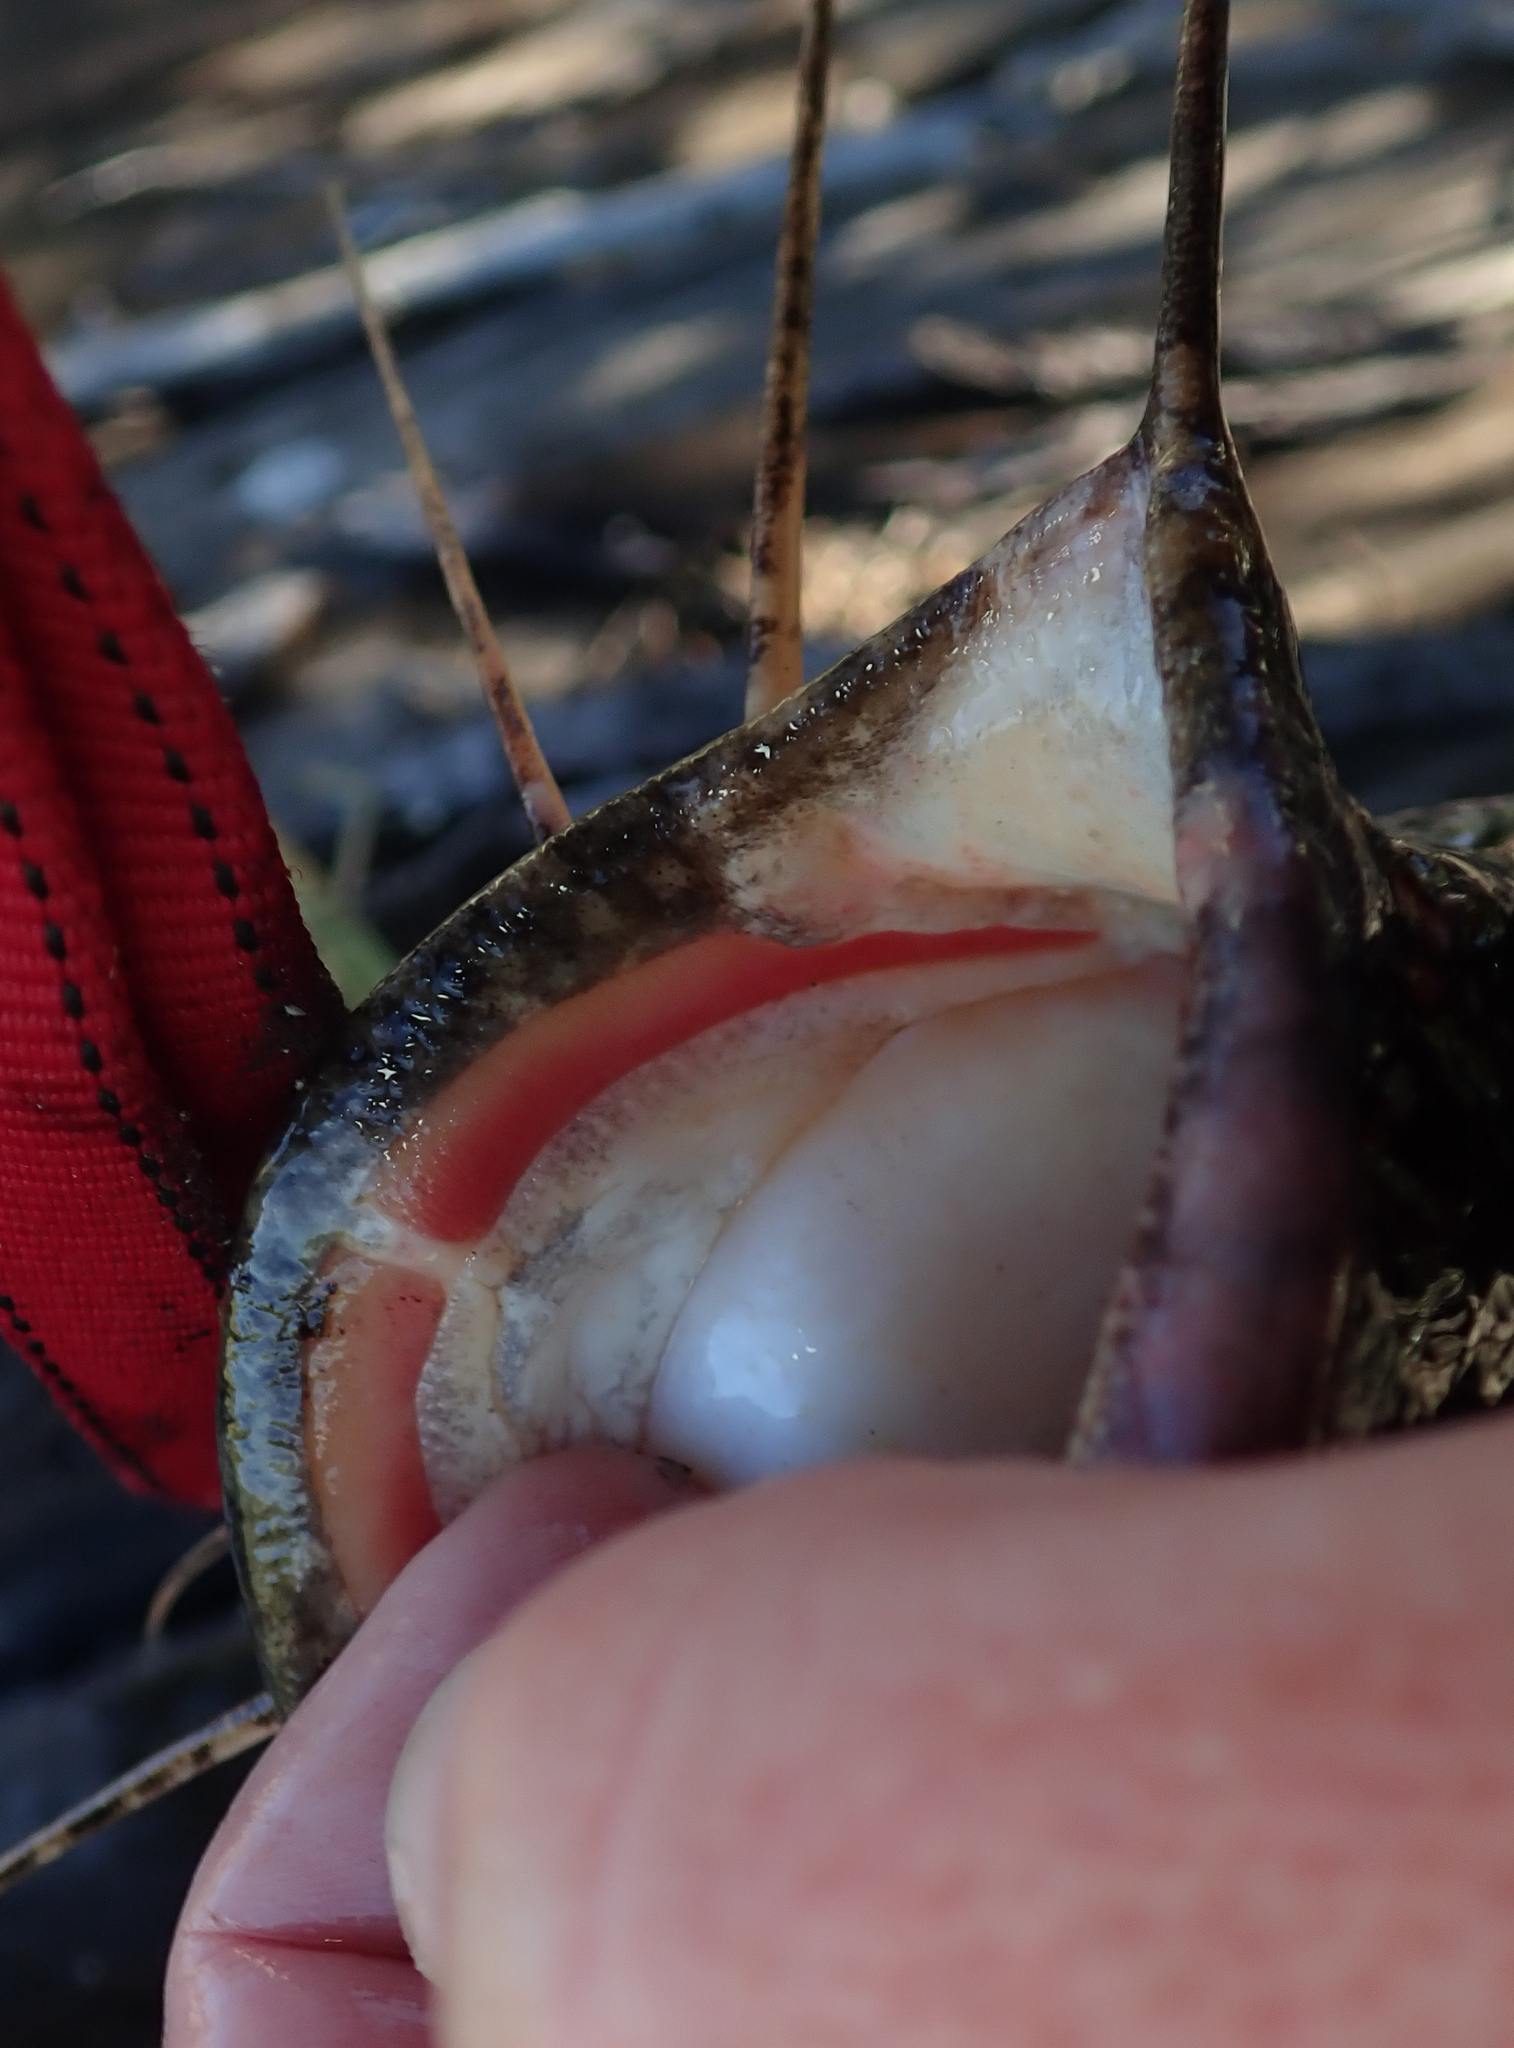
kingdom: Animalia
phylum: Chordata
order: Siluriformes
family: Clariidae
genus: Clarias
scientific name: Clarias gariepinus
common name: African catfish
